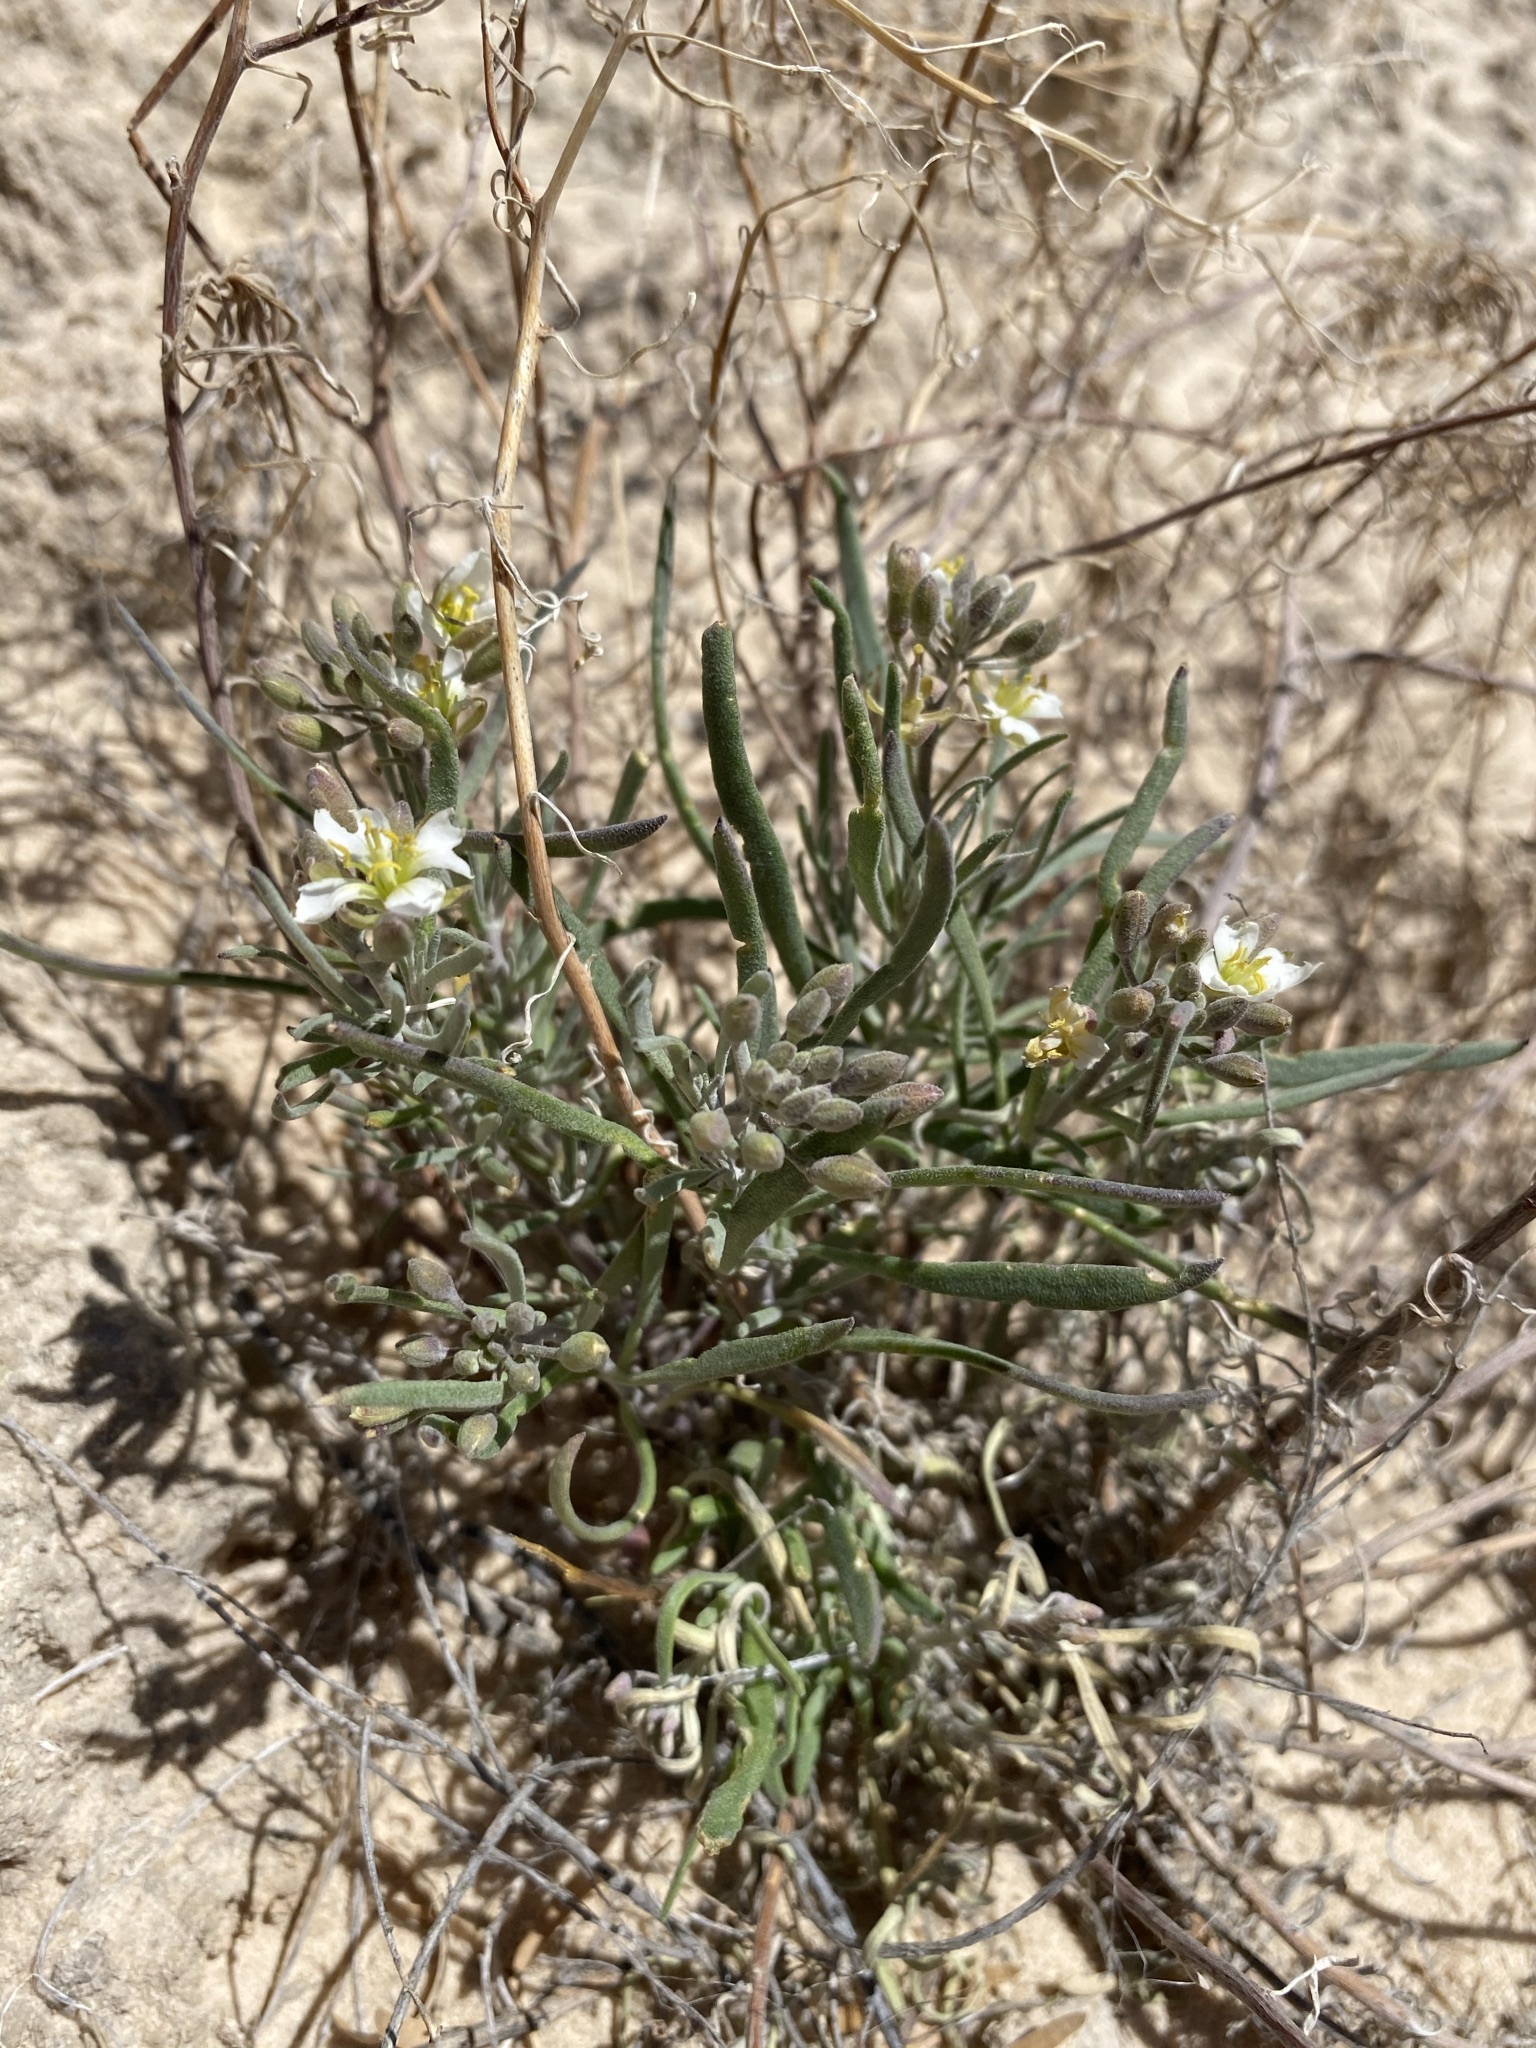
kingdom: Plantae
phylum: Tracheophyta
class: Magnoliopsida
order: Brassicales
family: Brassicaceae
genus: Nerisyrenia
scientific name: Nerisyrenia linearifolia
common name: White sands fan mustard
